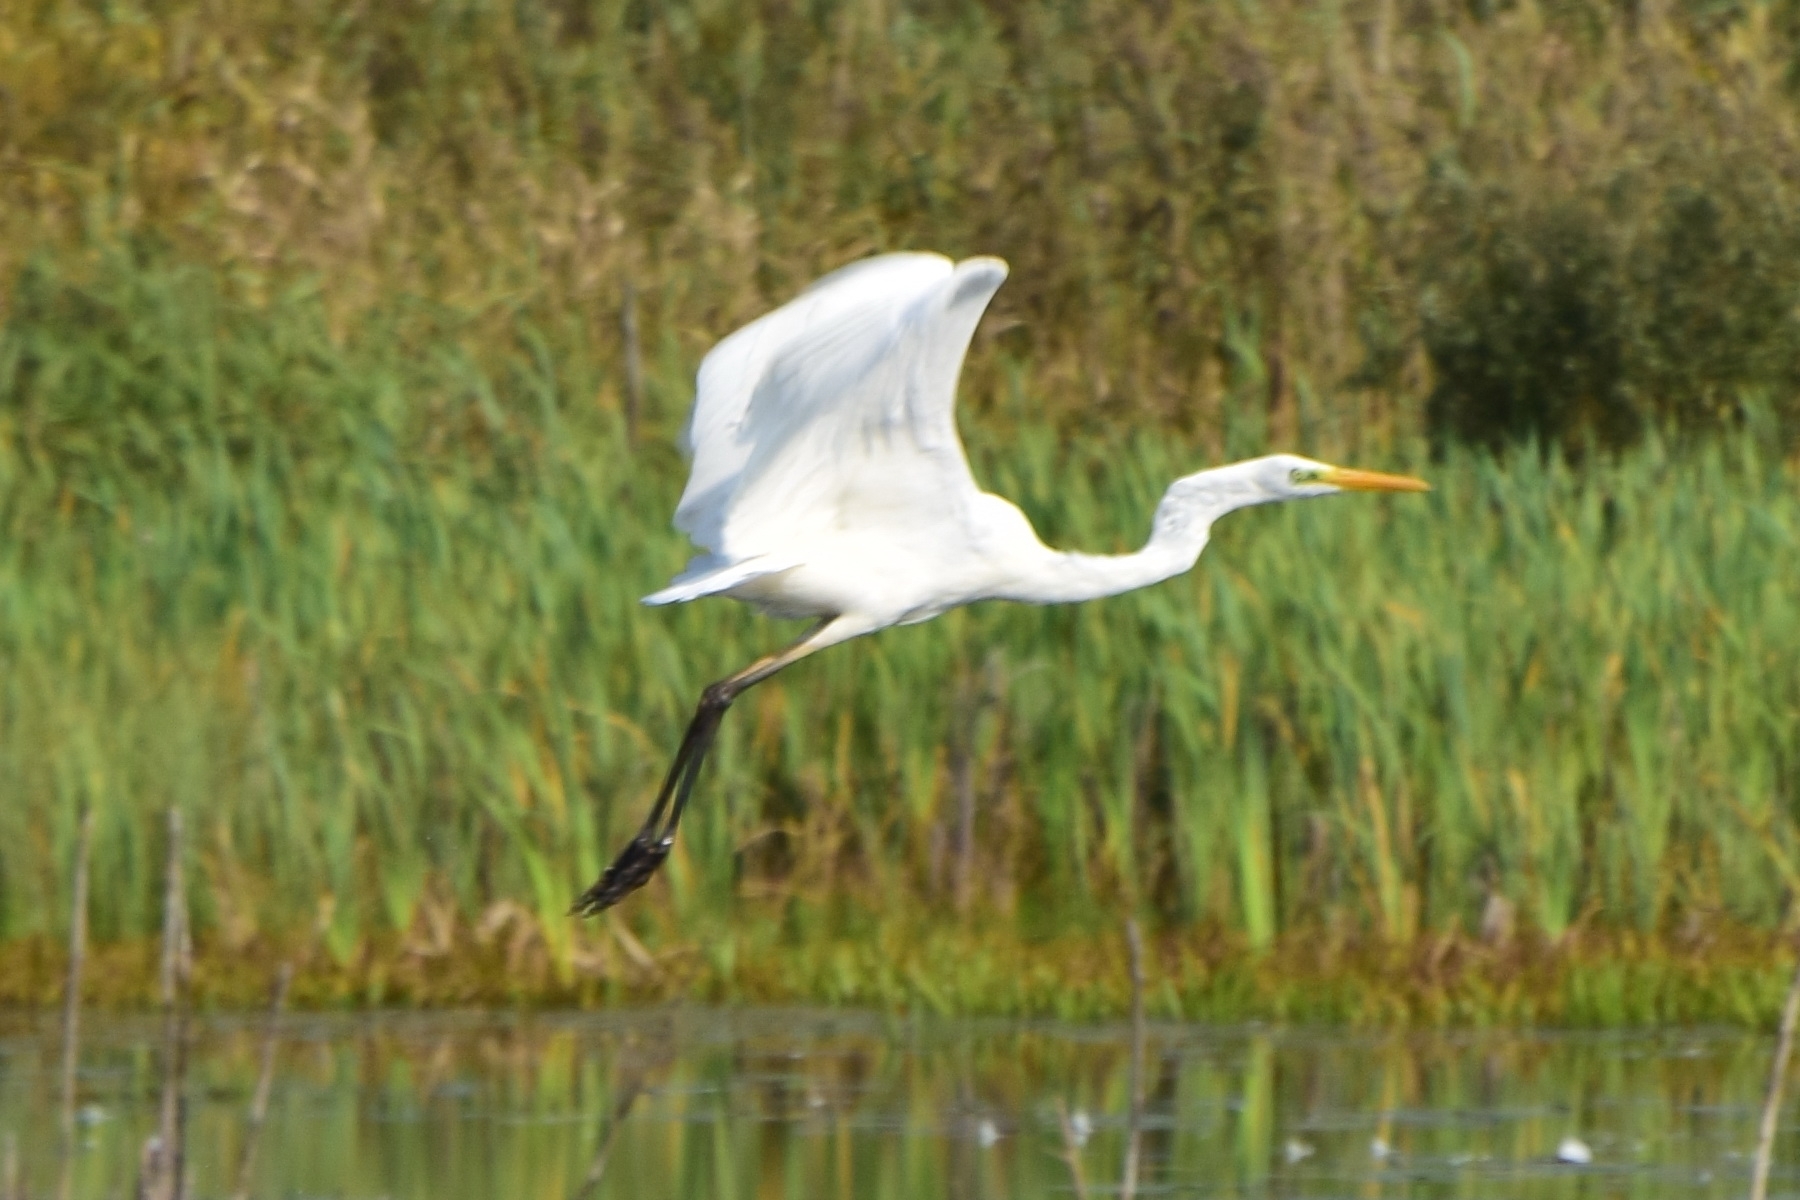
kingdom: Animalia
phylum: Chordata
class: Aves
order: Pelecaniformes
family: Ardeidae
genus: Ardea
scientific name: Ardea alba
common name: Great egret
